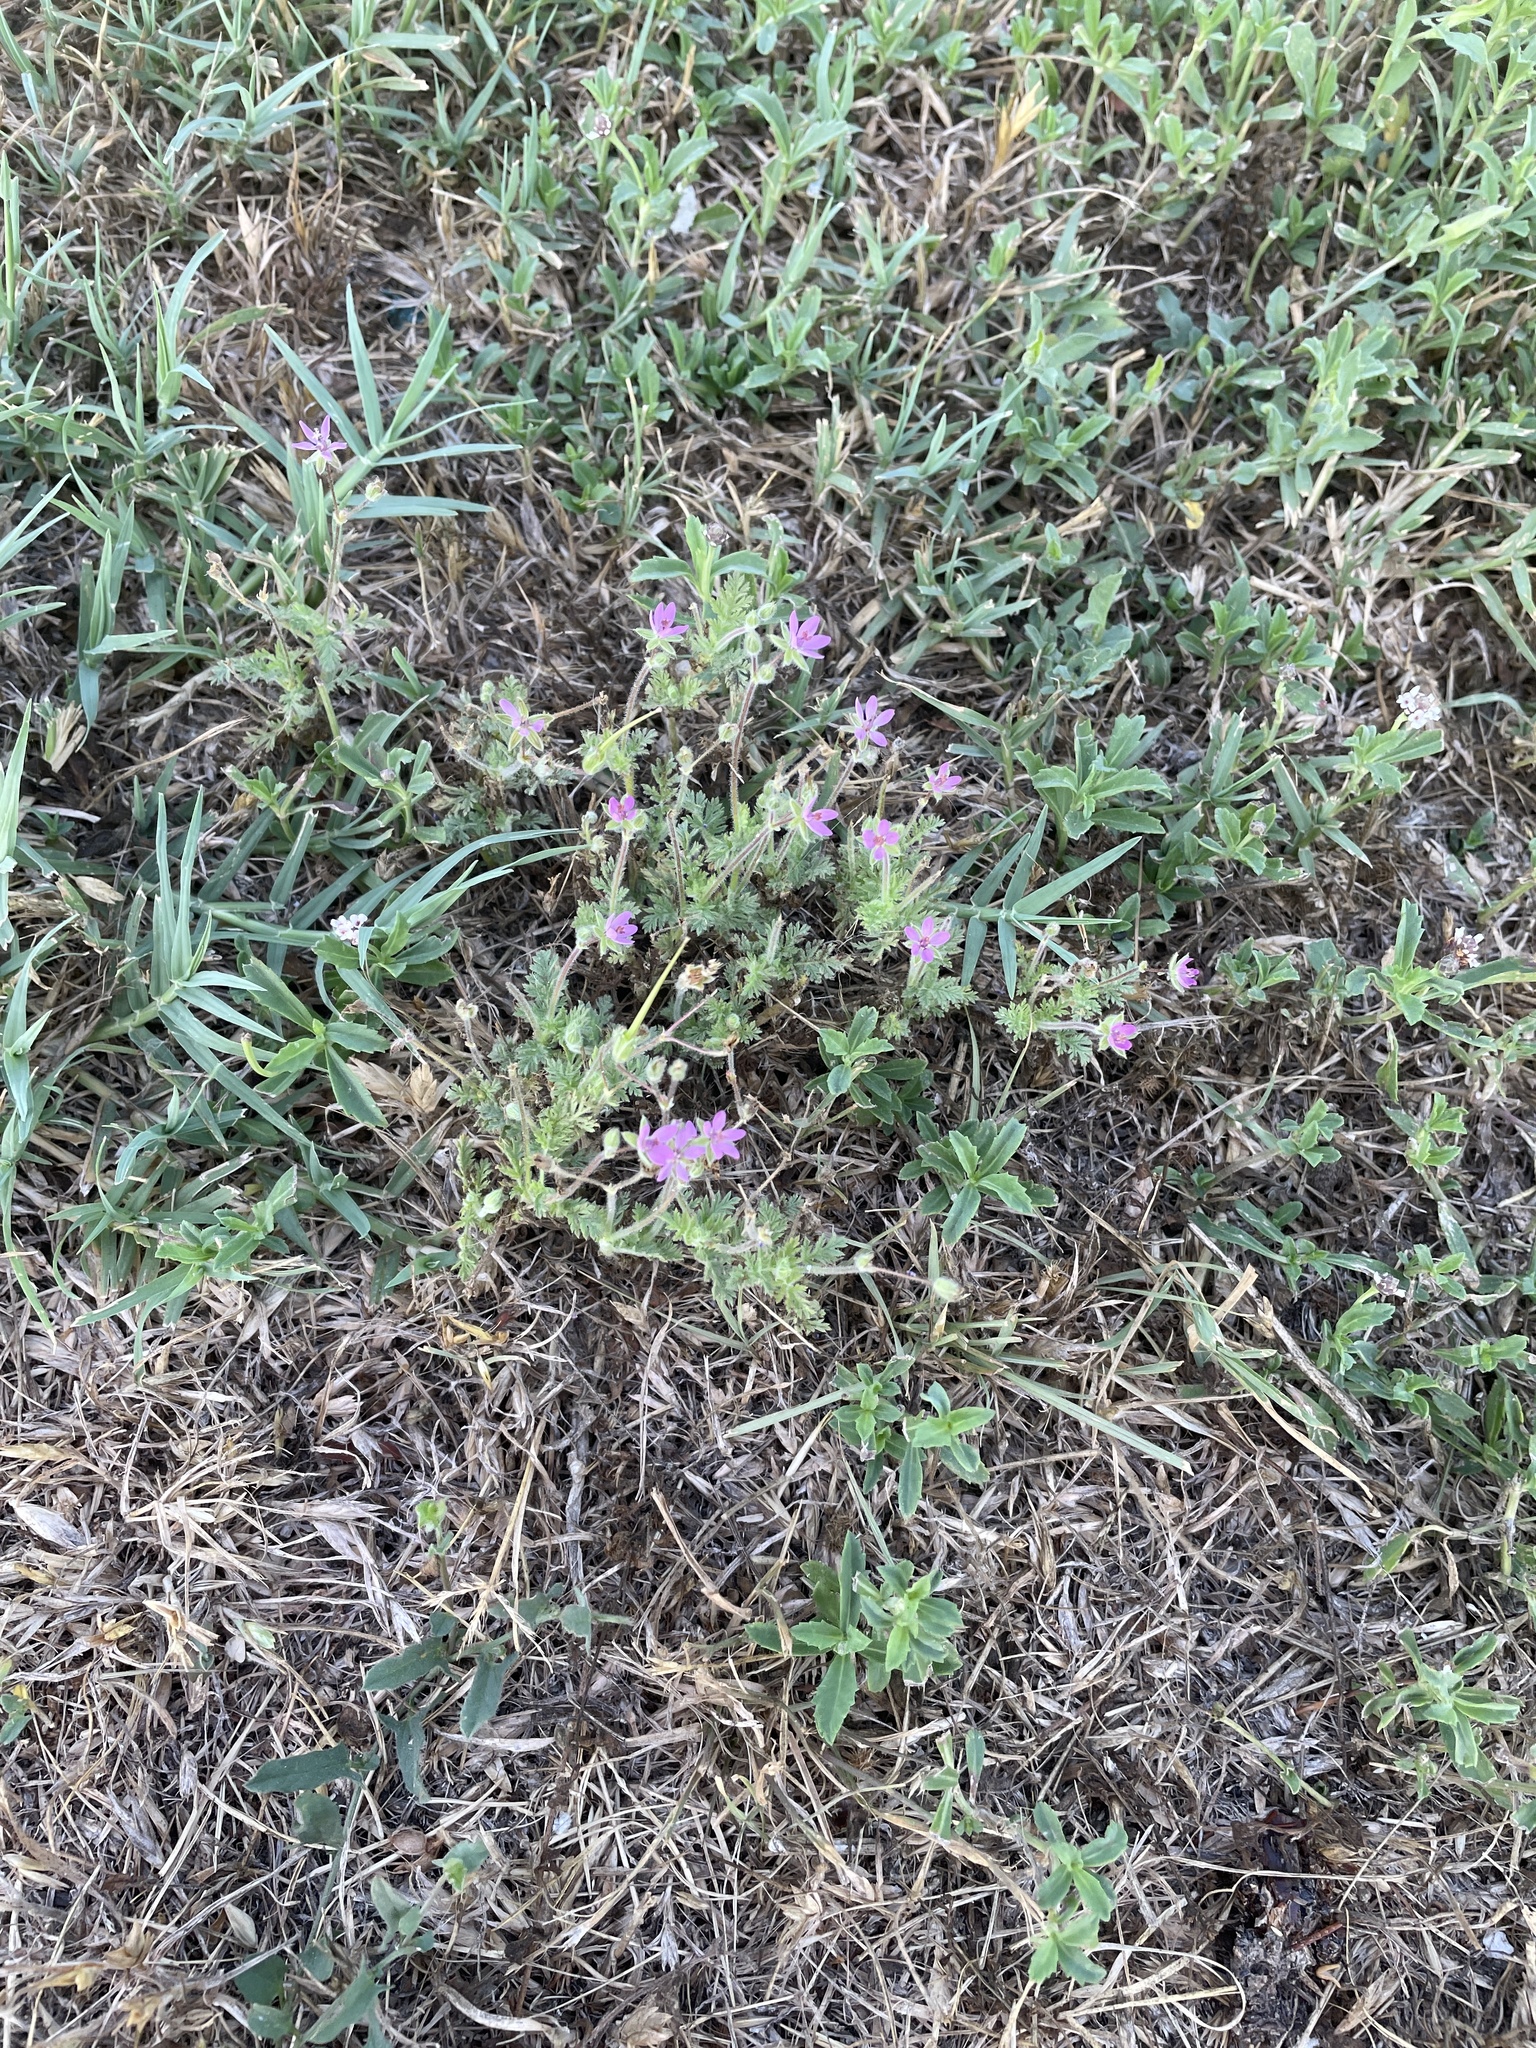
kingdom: Plantae
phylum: Tracheophyta
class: Magnoliopsida
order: Geraniales
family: Geraniaceae
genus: Erodium
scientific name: Erodium cicutarium
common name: Common stork's-bill
